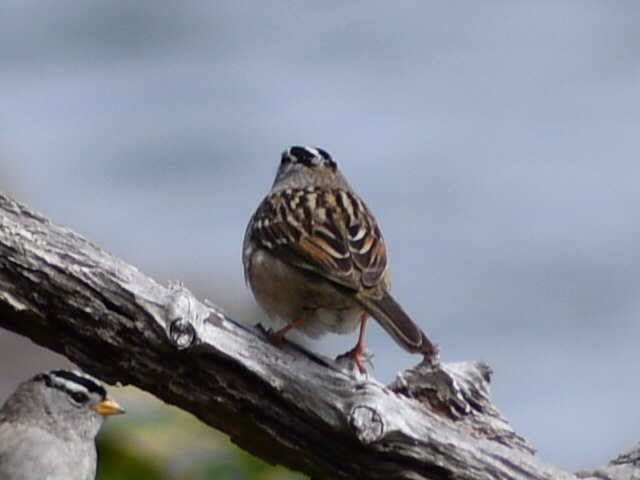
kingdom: Animalia
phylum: Chordata
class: Aves
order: Passeriformes
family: Passerellidae
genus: Zonotrichia
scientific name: Zonotrichia leucophrys
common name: White-crowned sparrow
